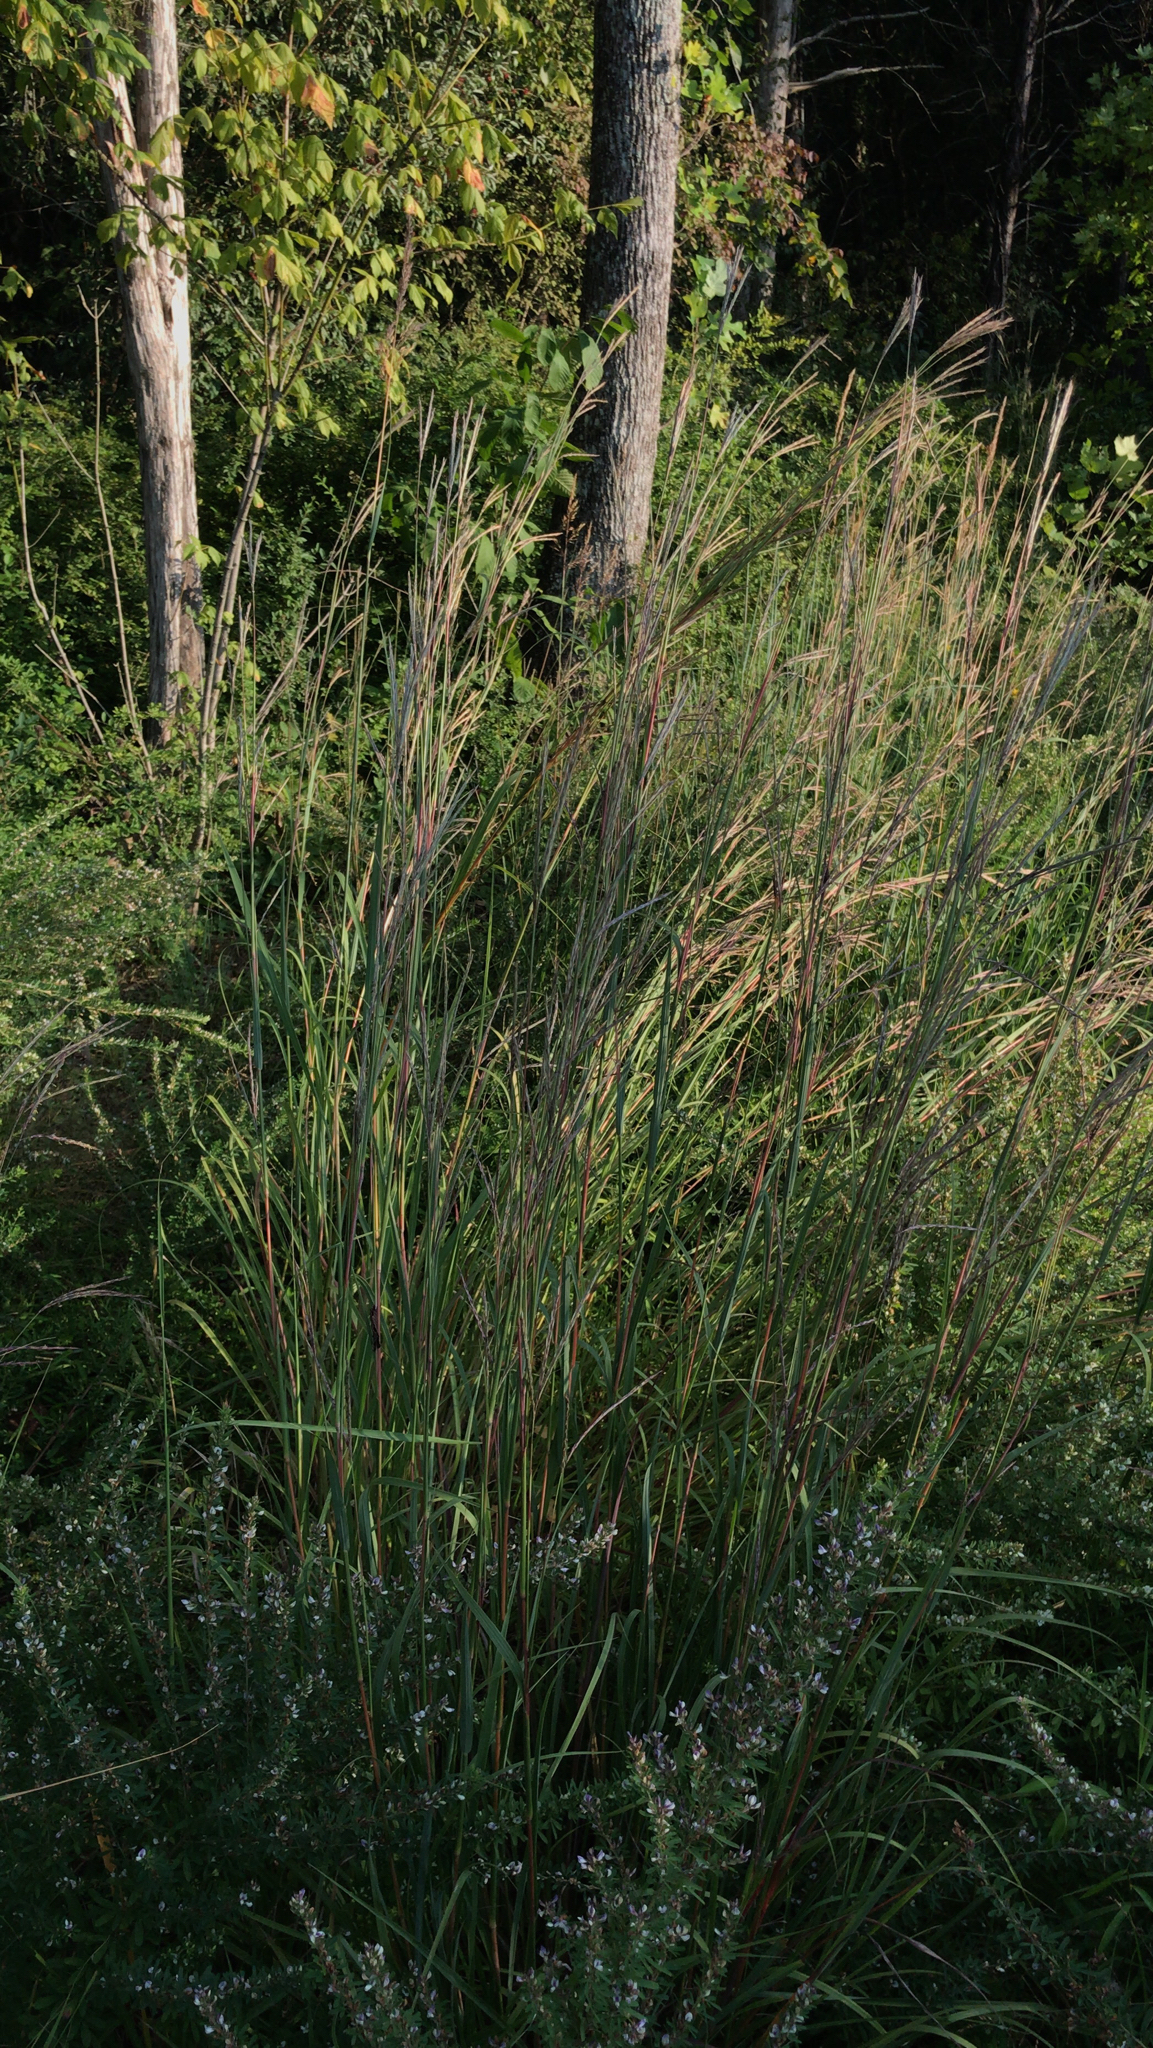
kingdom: Plantae
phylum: Tracheophyta
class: Liliopsida
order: Poales
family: Poaceae
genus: Andropogon
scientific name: Andropogon gerardi
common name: Big bluestem
